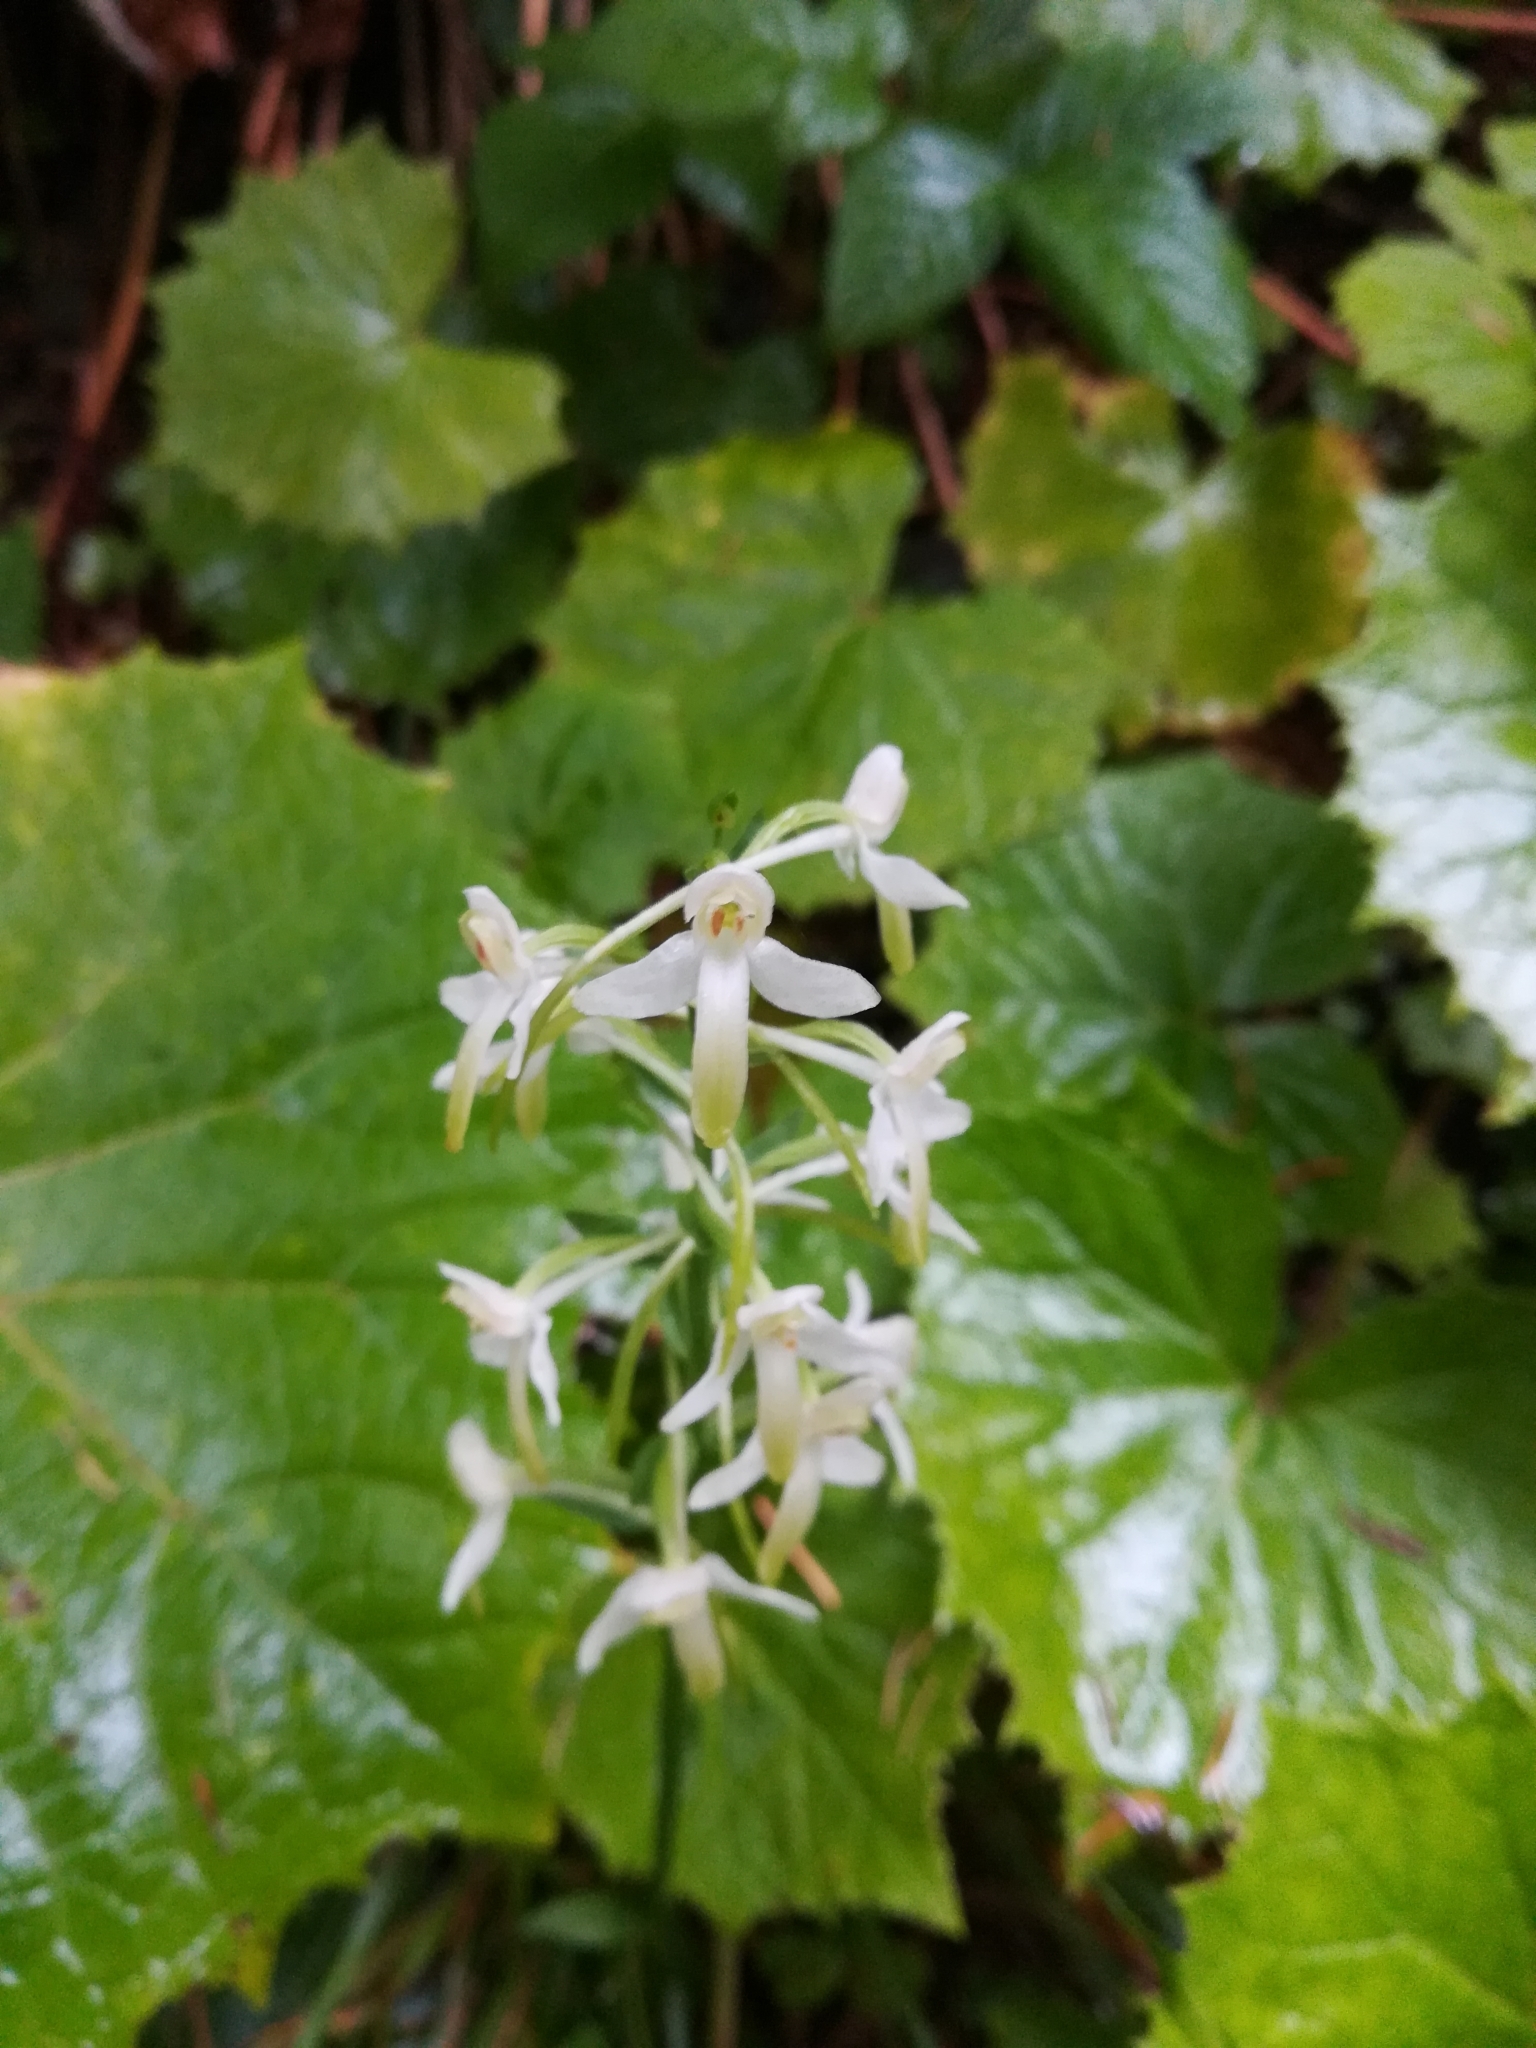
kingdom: Plantae
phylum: Tracheophyta
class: Liliopsida
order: Asparagales
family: Orchidaceae
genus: Platanthera
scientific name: Platanthera bifolia
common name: Lesser butterfly-orchid
